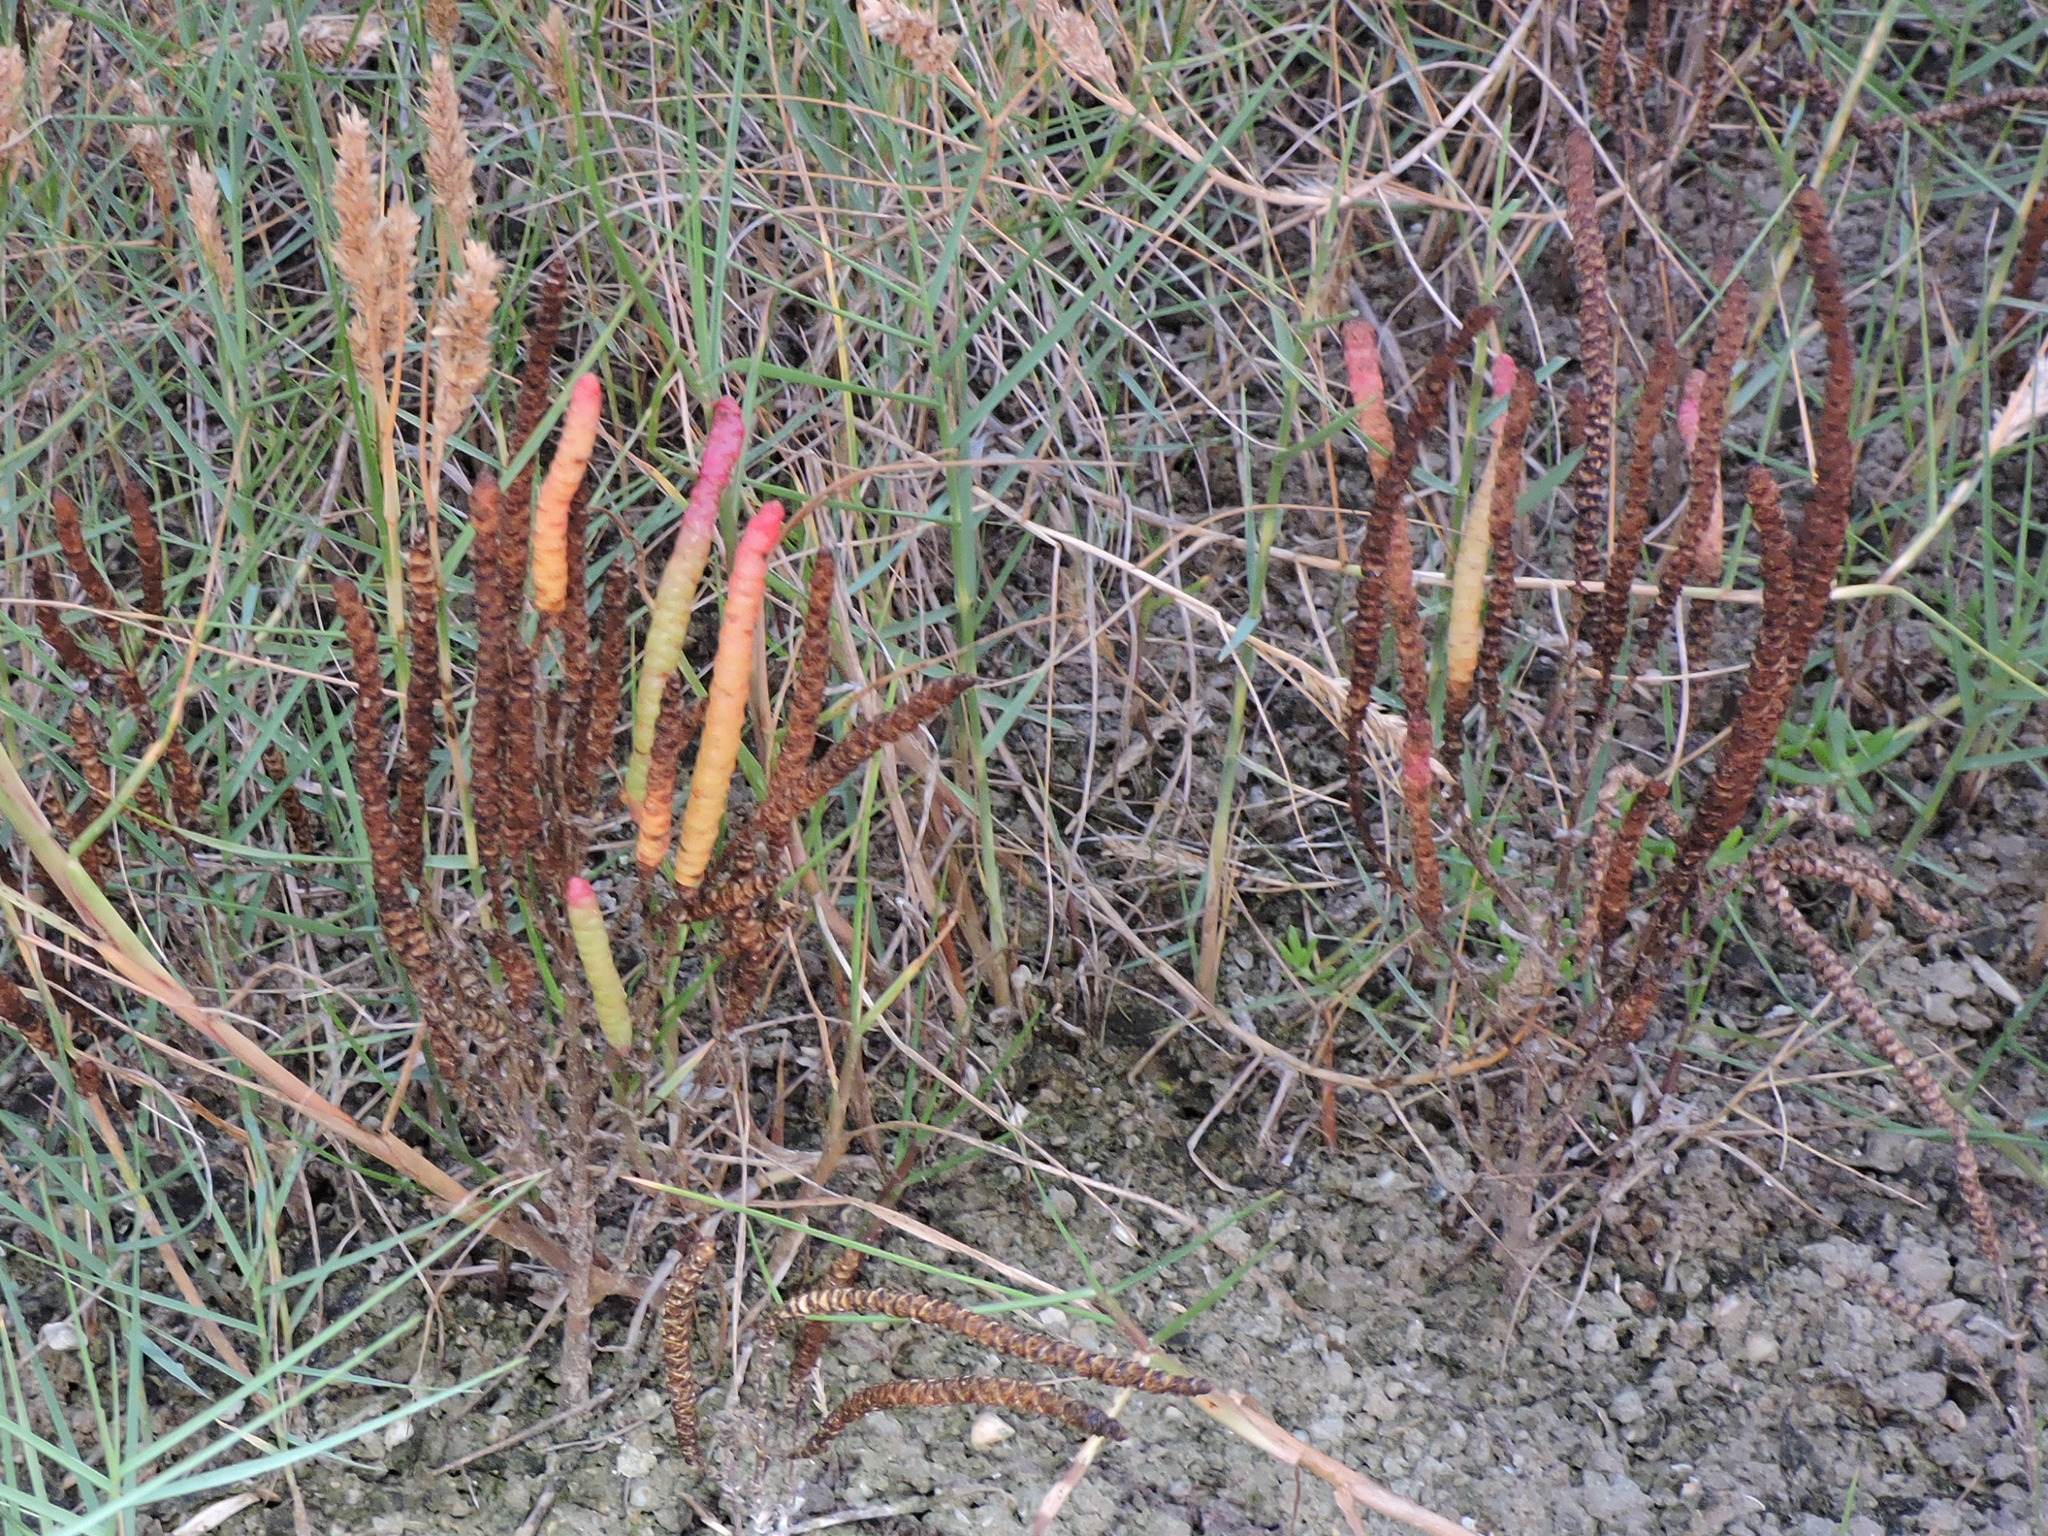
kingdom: Plantae
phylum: Tracheophyta
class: Magnoliopsida
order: Caryophyllales
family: Amaranthaceae
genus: Salicornia
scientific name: Salicornia bigelovii
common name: Dwarf glasswort
